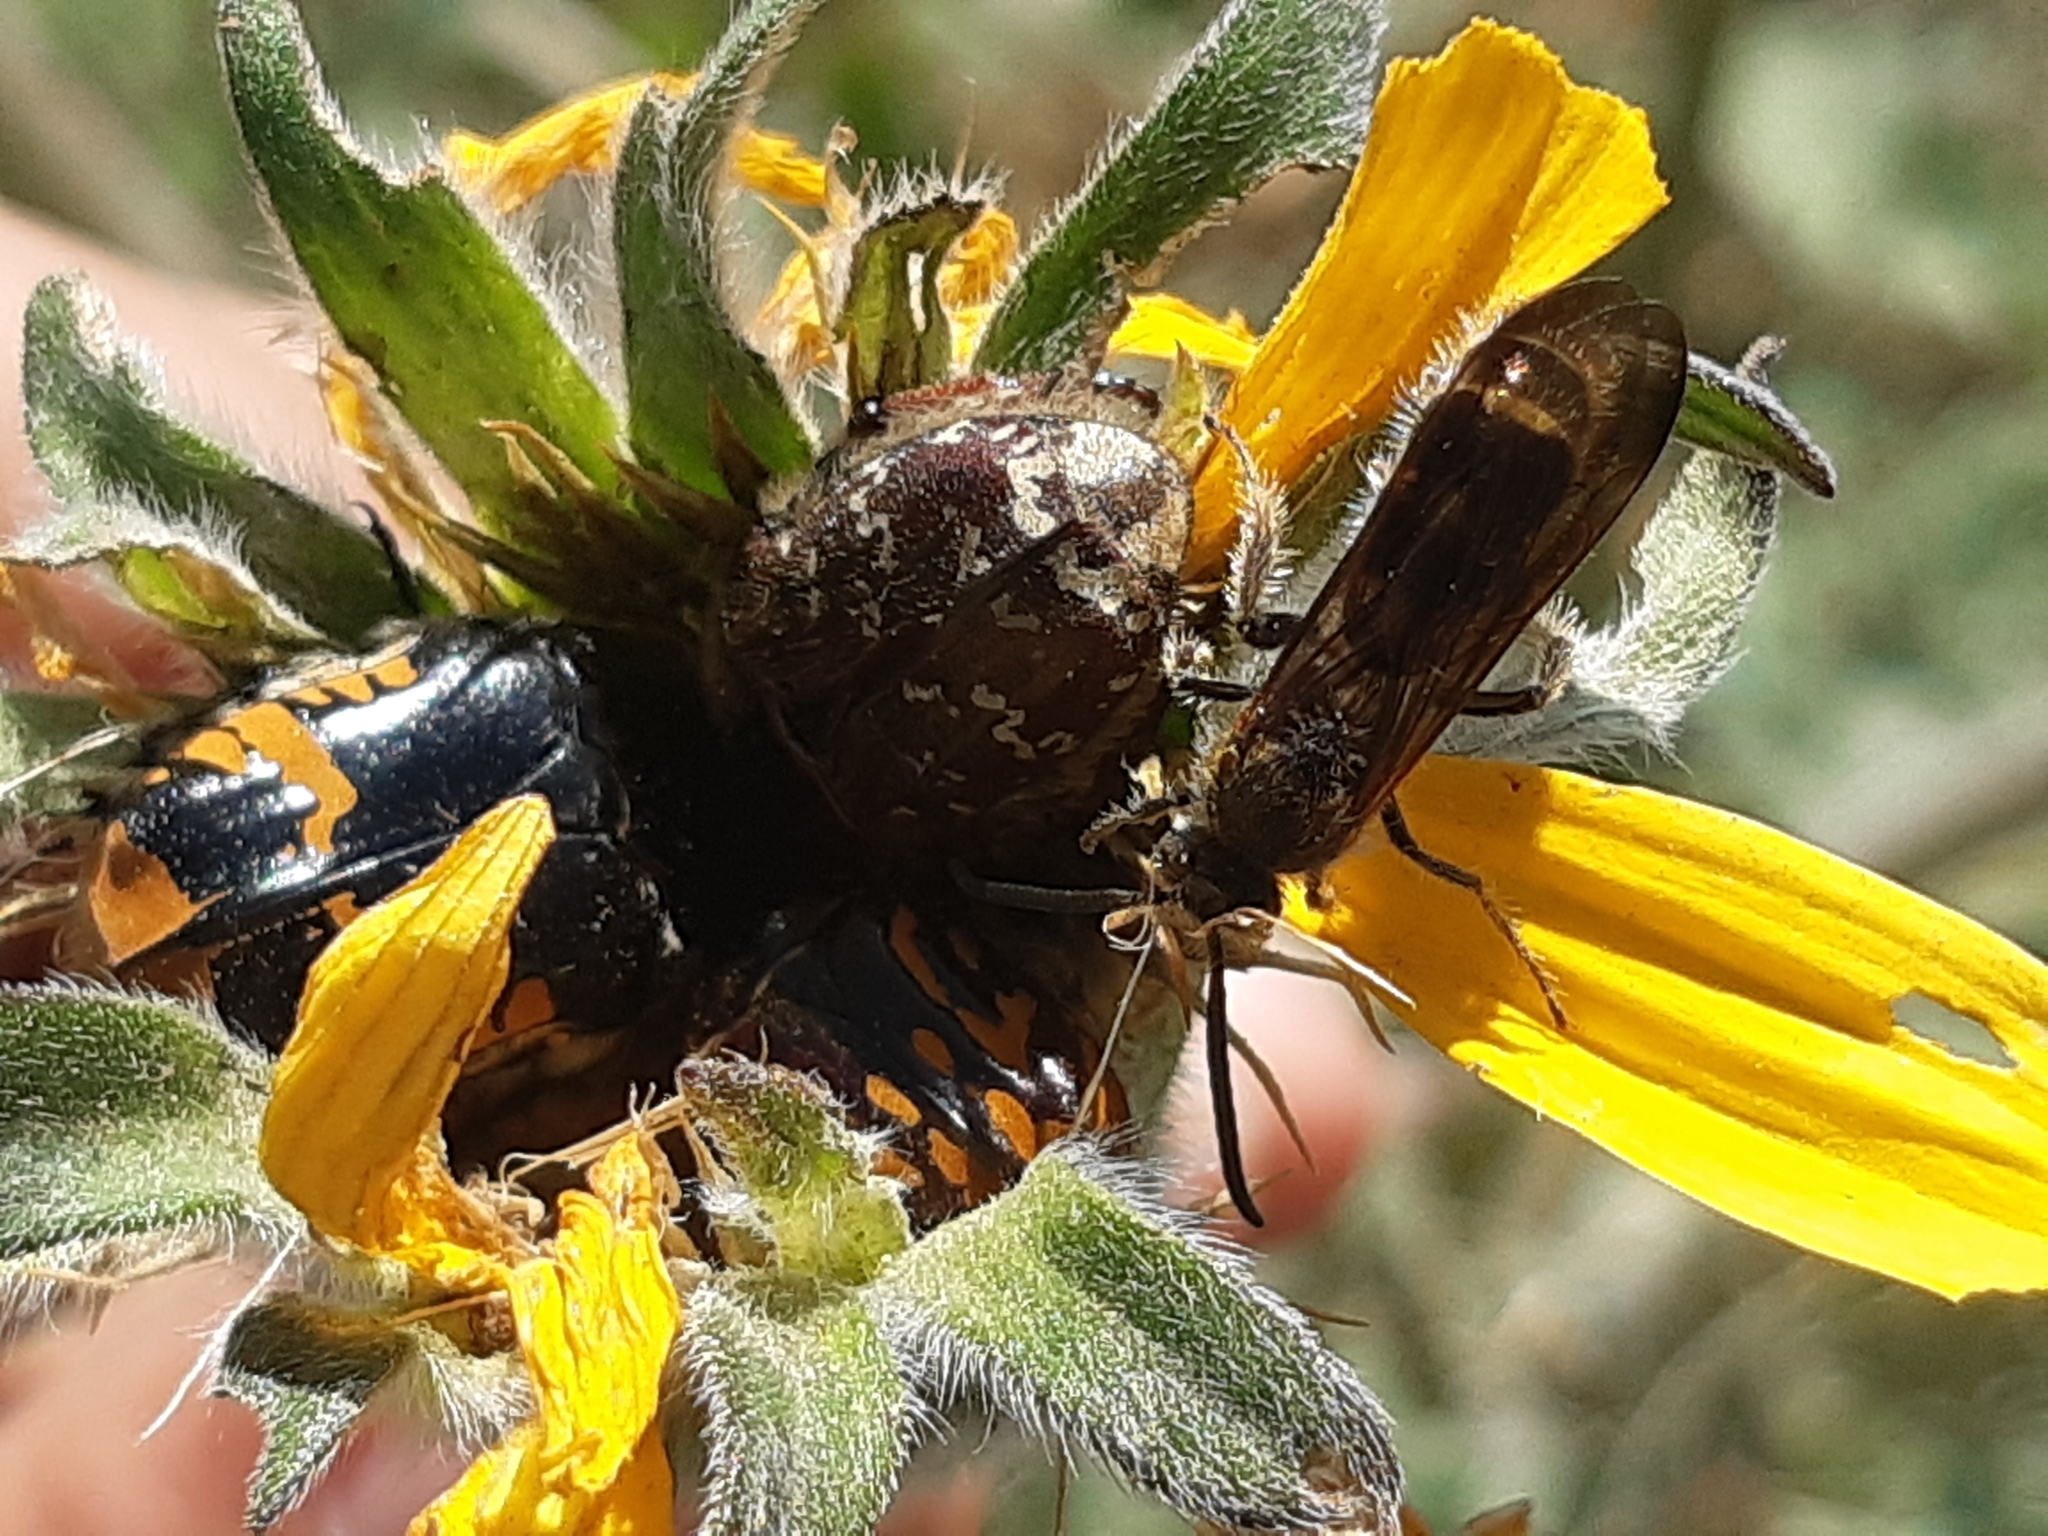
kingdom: Animalia
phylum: Arthropoda
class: Insecta
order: Coleoptera
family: Scarabaeidae
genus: Euphoria
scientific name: Euphoria subtomentosa
